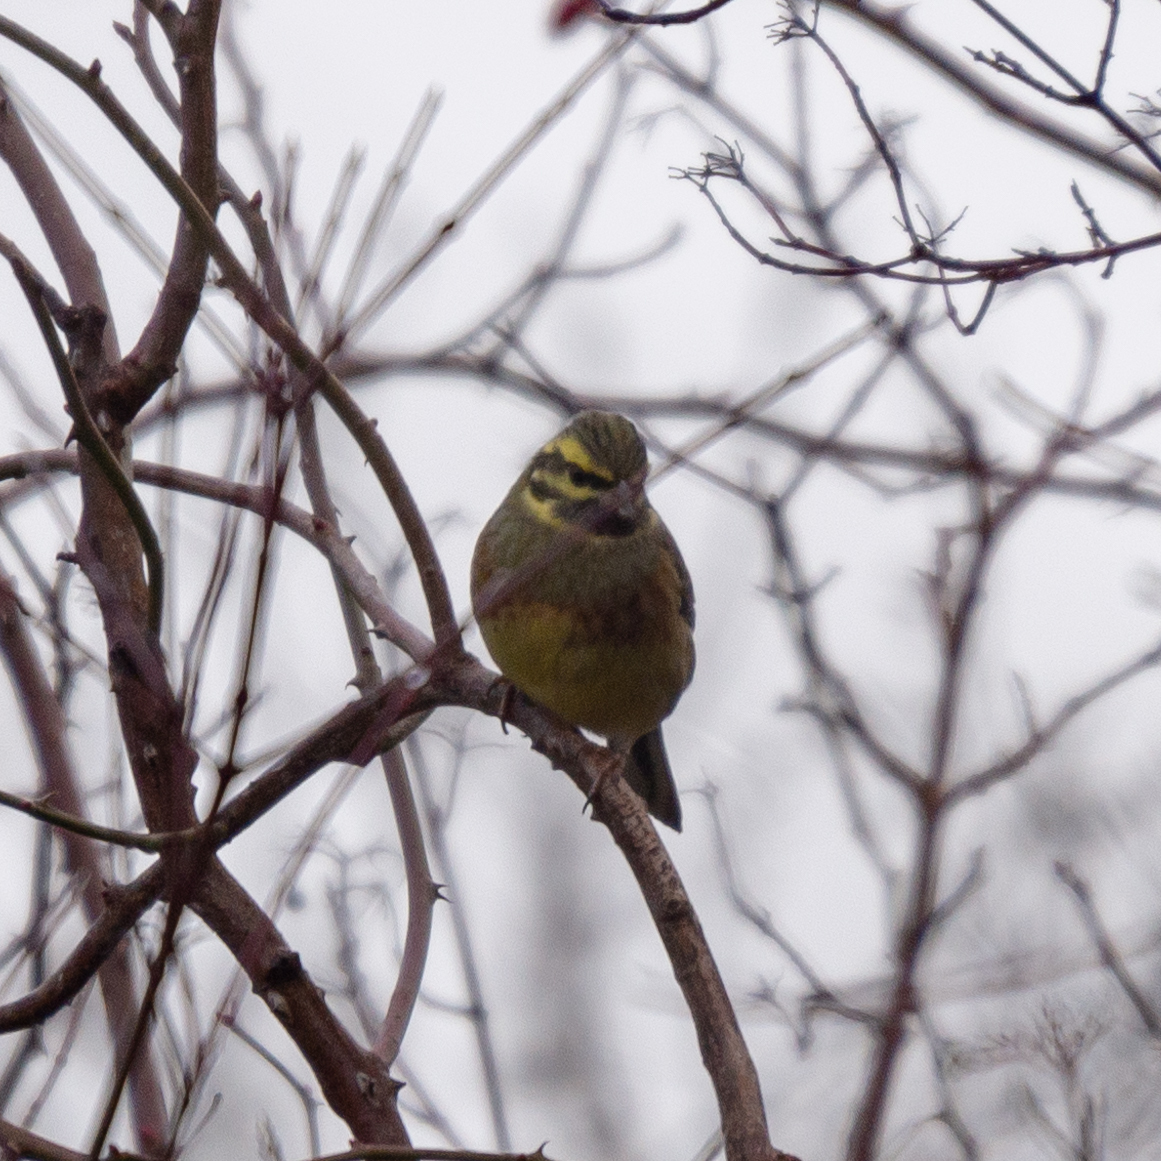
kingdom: Animalia
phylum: Chordata
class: Aves
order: Passeriformes
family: Emberizidae
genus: Emberiza
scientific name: Emberiza cirlus
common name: Cirl bunting
